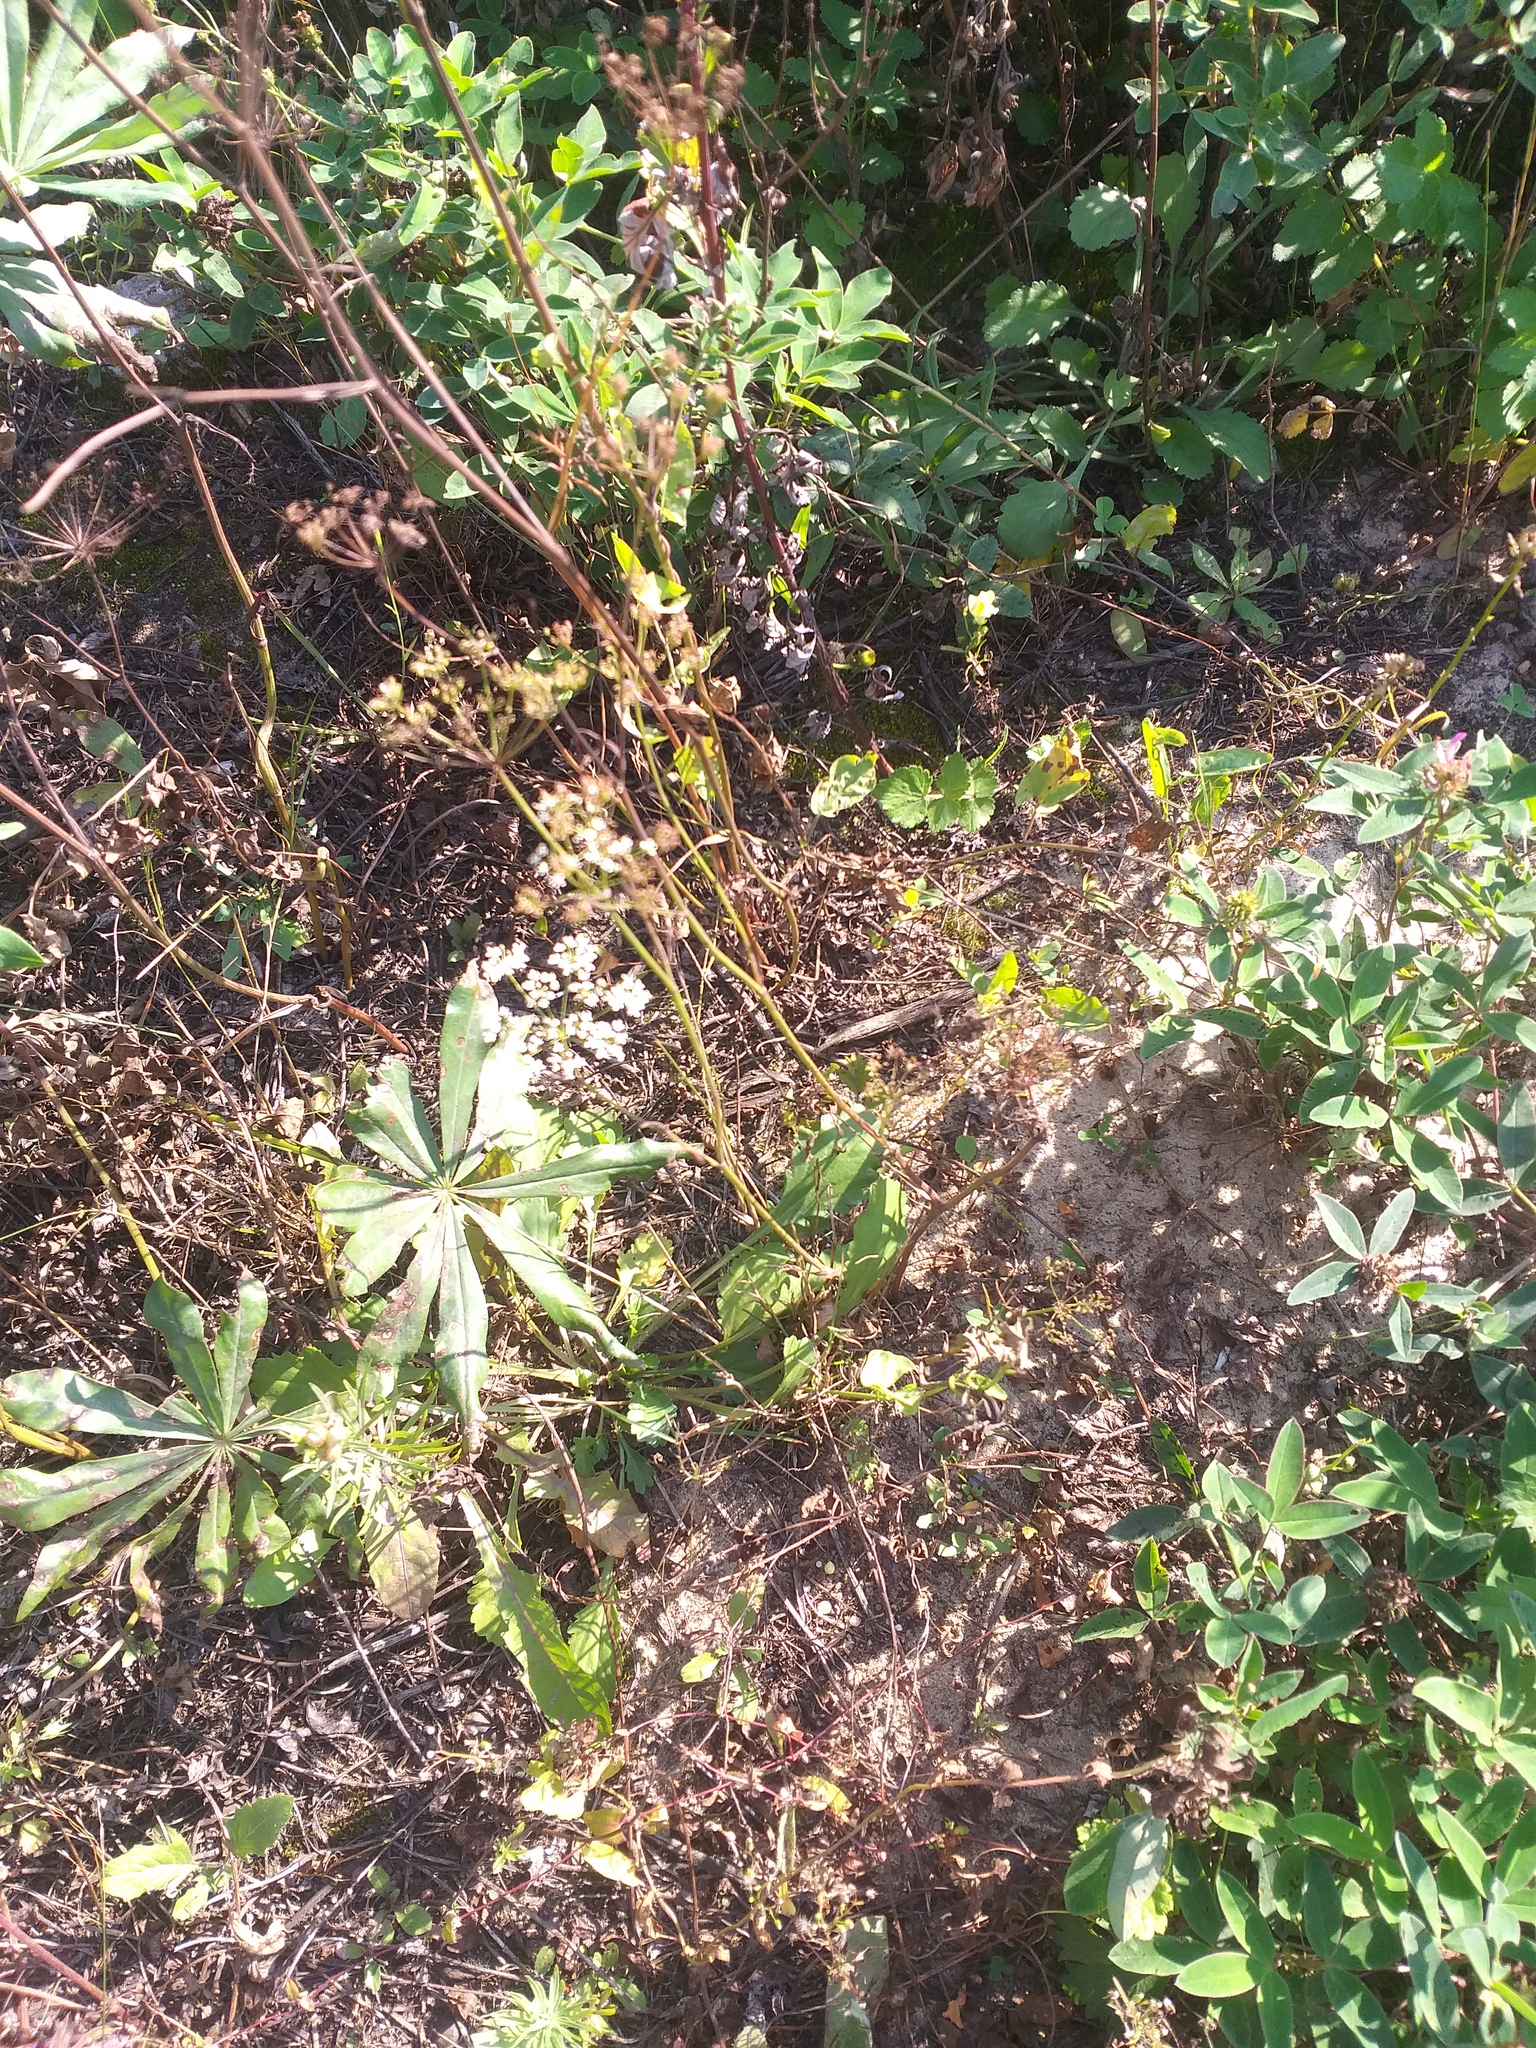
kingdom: Plantae
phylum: Tracheophyta
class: Magnoliopsida
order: Fabales
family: Fabaceae
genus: Lupinus
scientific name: Lupinus polyphyllus
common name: Garden lupin
